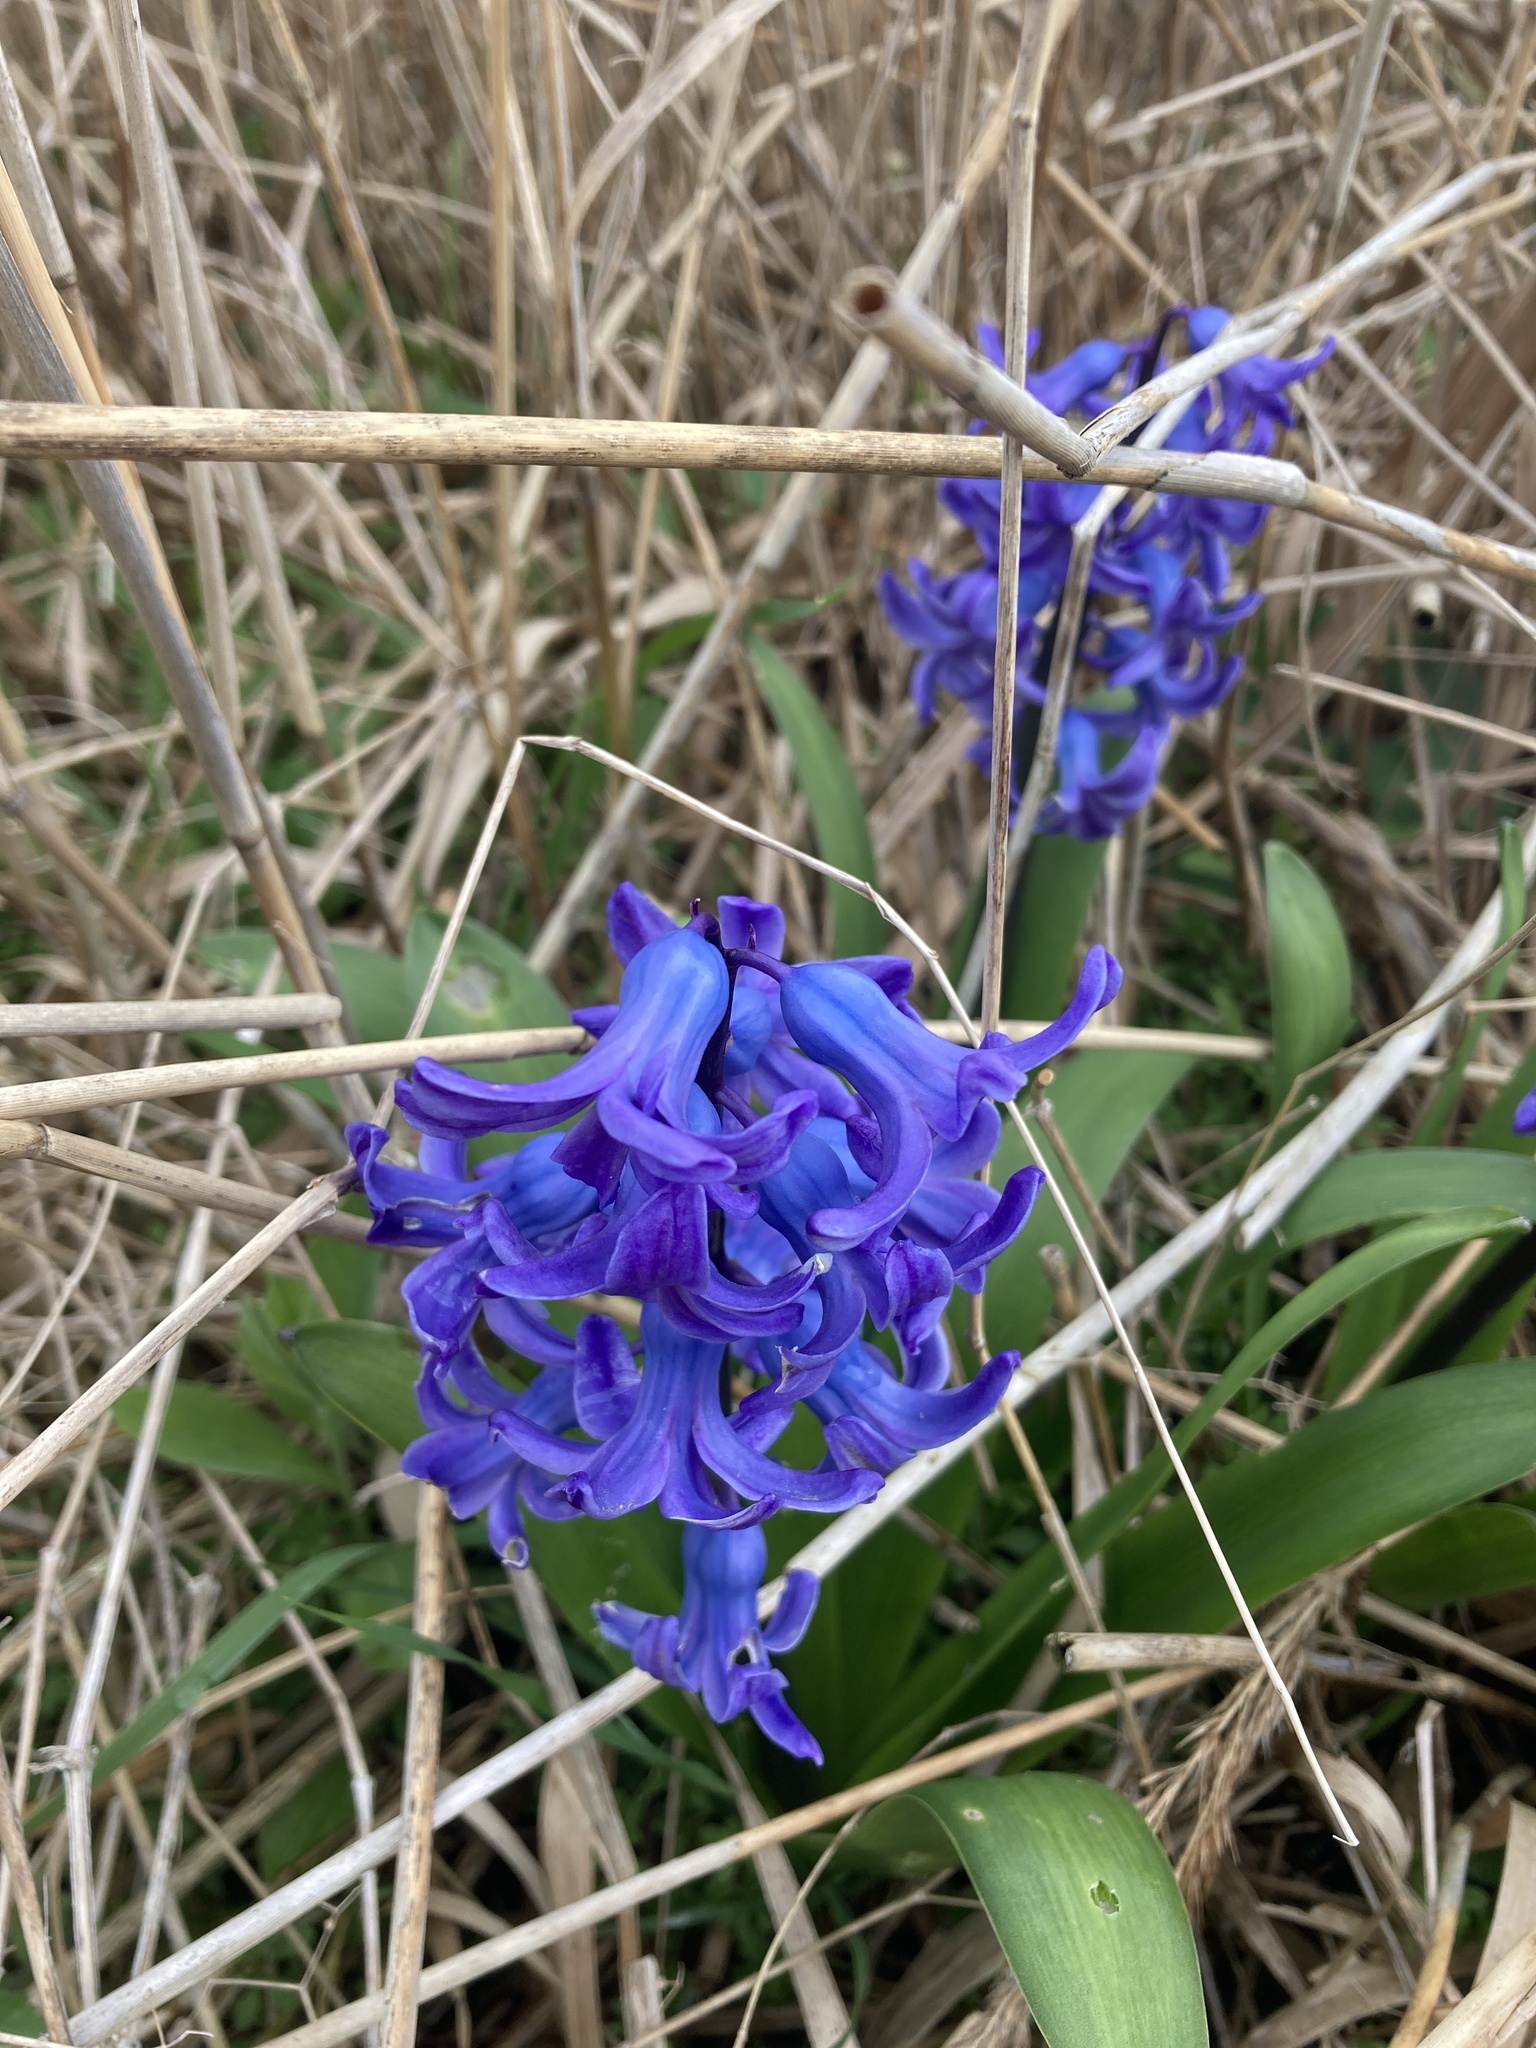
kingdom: Plantae
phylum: Tracheophyta
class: Liliopsida
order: Asparagales
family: Asparagaceae
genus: Hyacinthus
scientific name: Hyacinthus orientalis
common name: Hyacinth
